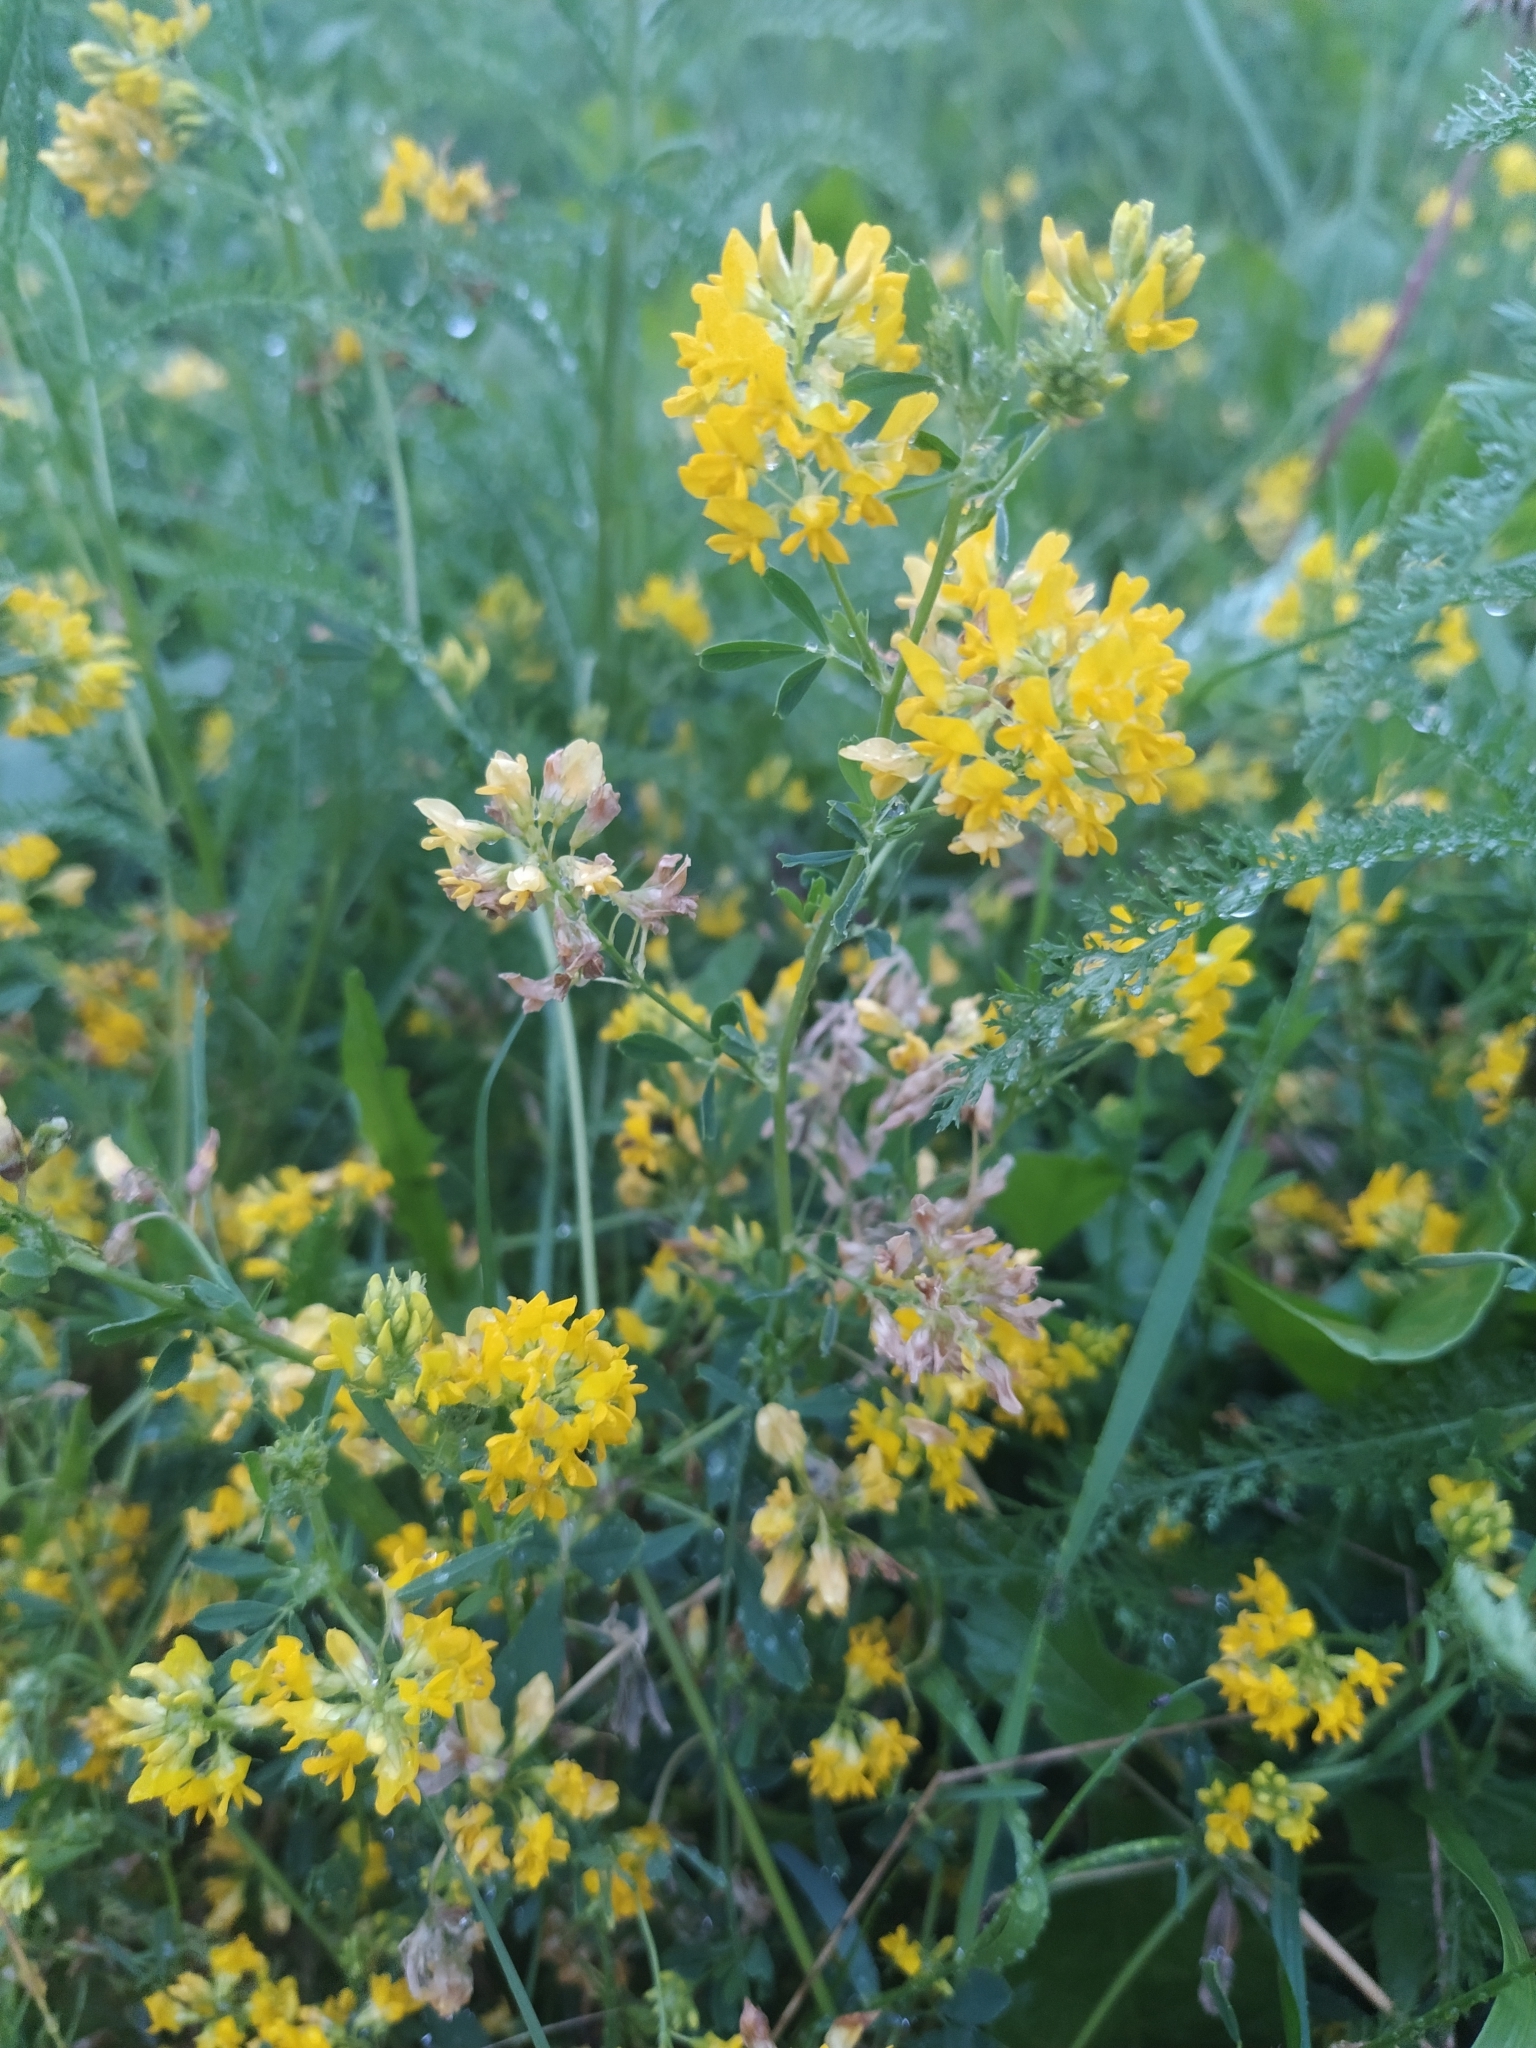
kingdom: Plantae
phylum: Tracheophyta
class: Magnoliopsida
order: Fabales
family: Fabaceae
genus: Medicago
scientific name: Medicago falcata
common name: Sickle medick
